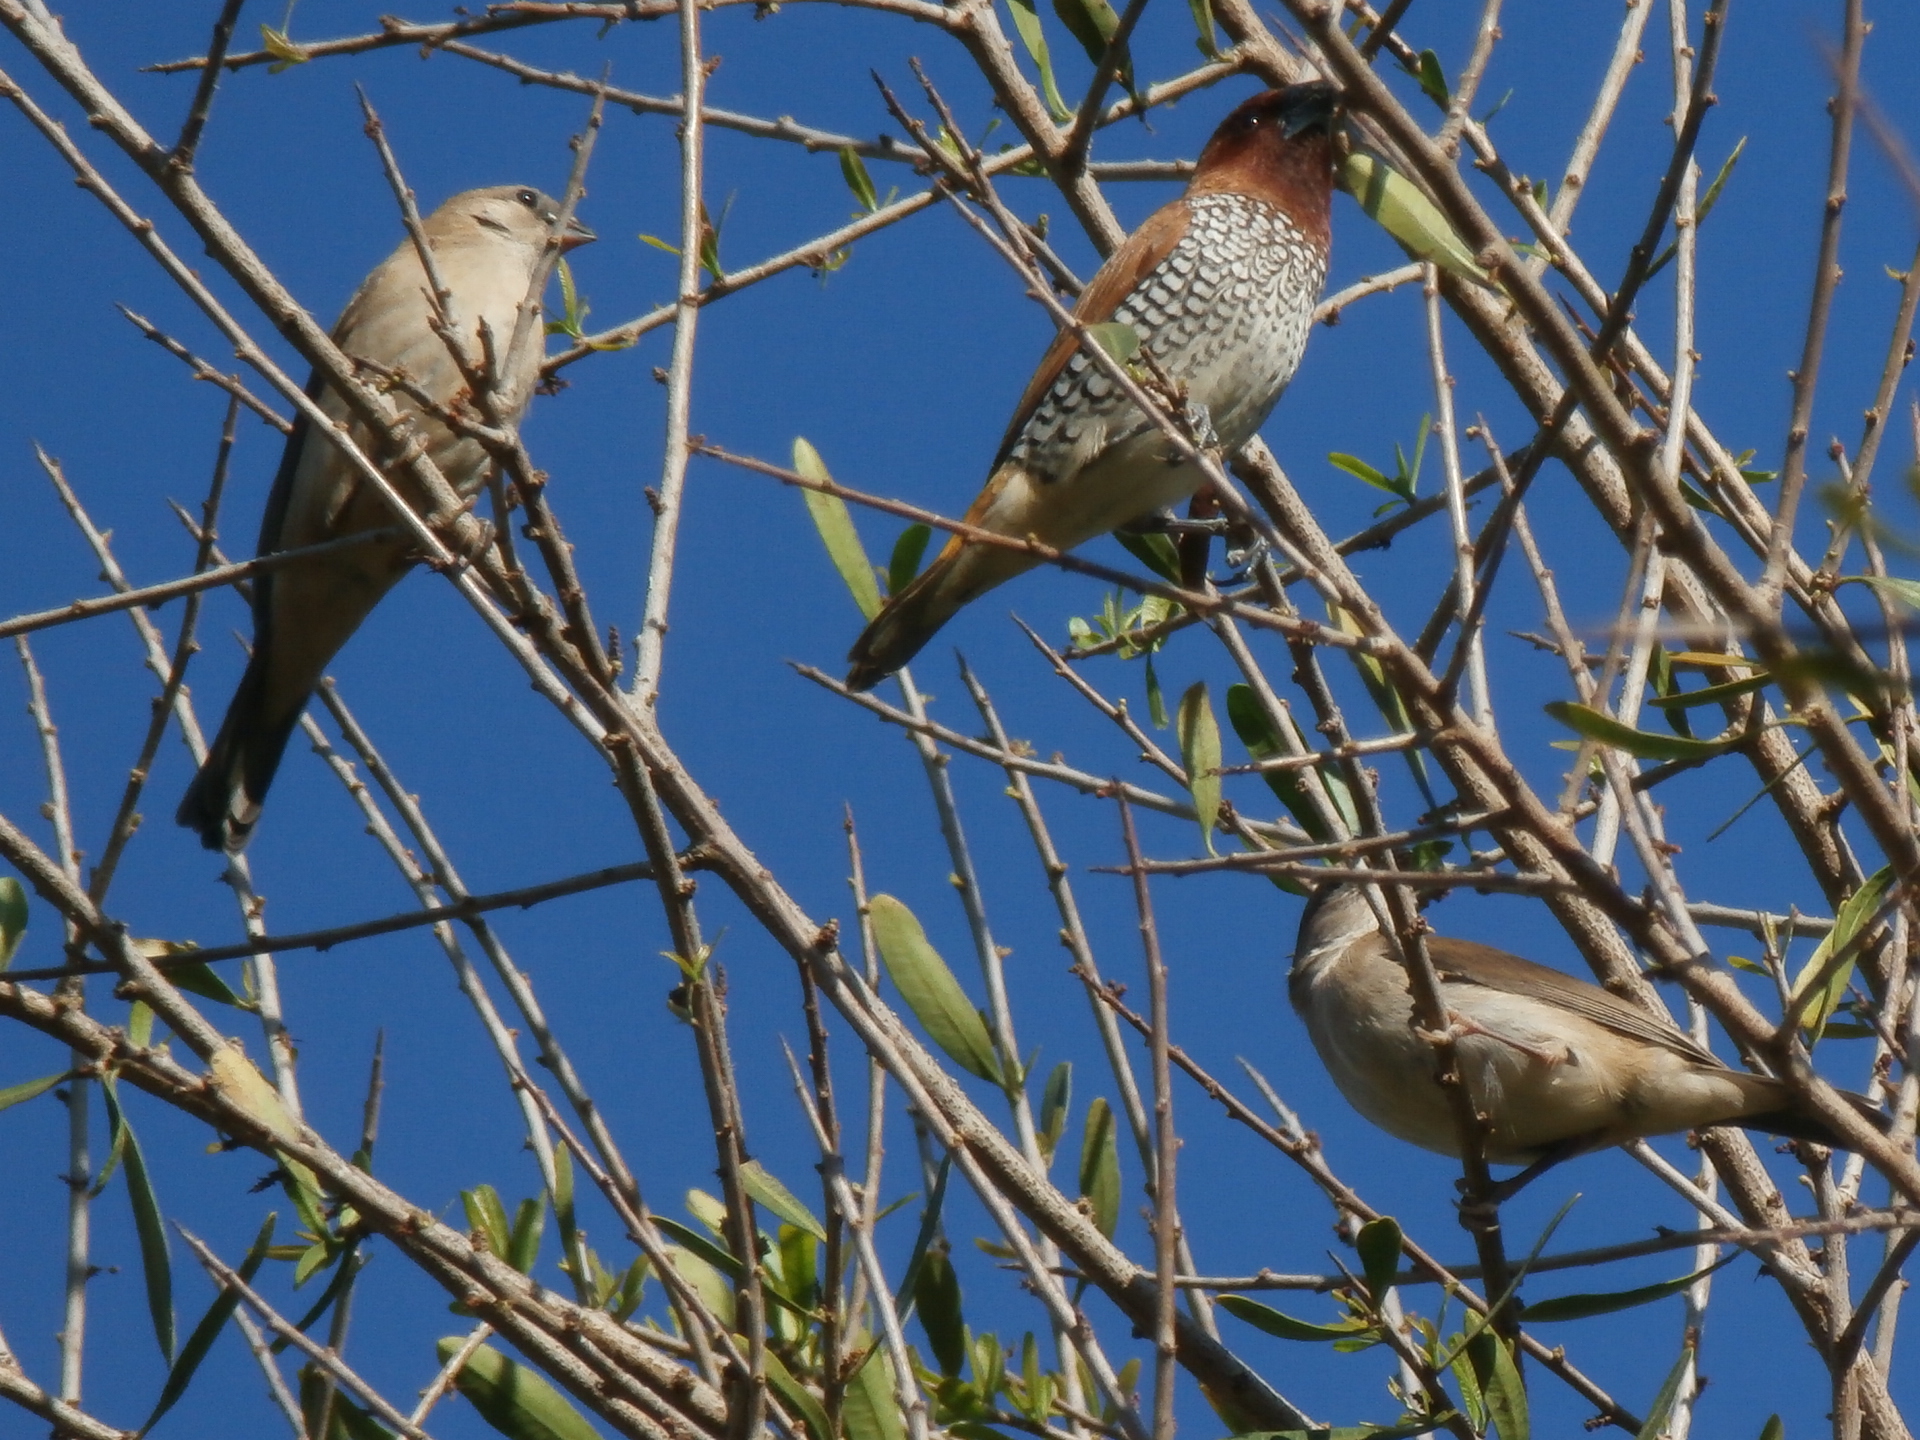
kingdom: Animalia
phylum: Chordata
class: Aves
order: Passeriformes
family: Estrildidae
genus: Lonchura
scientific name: Lonchura punctulata
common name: Scaly-breasted munia
